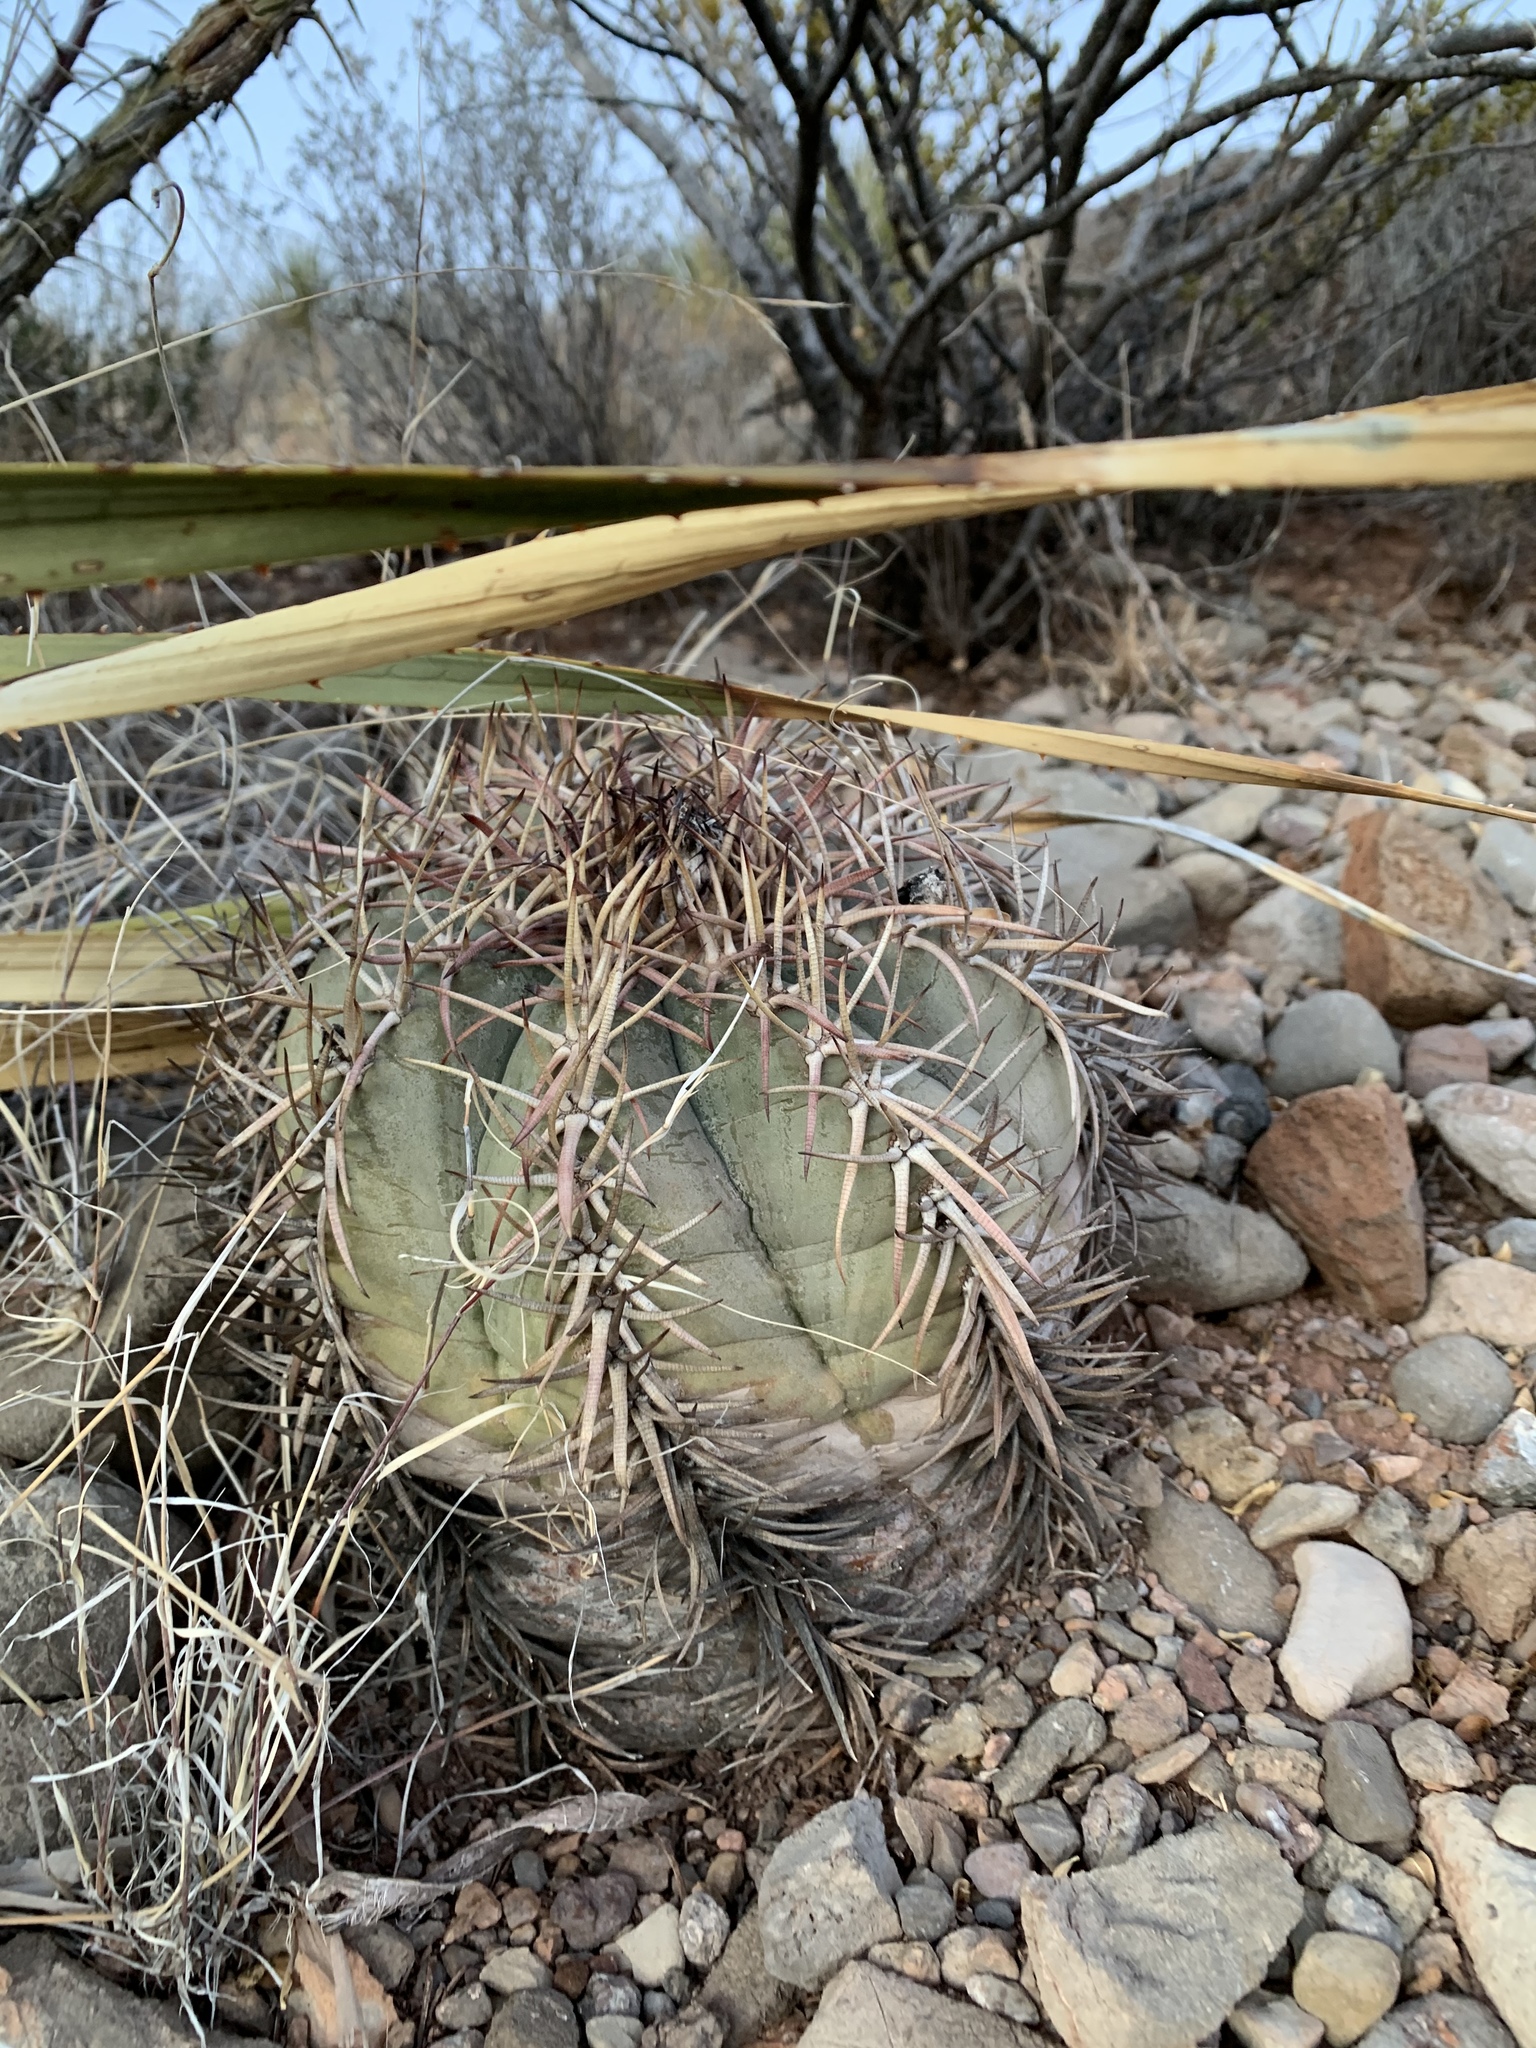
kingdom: Plantae
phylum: Tracheophyta
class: Magnoliopsida
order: Caryophyllales
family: Cactaceae
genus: Echinocactus
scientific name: Echinocactus horizonthalonius
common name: Devilshead
